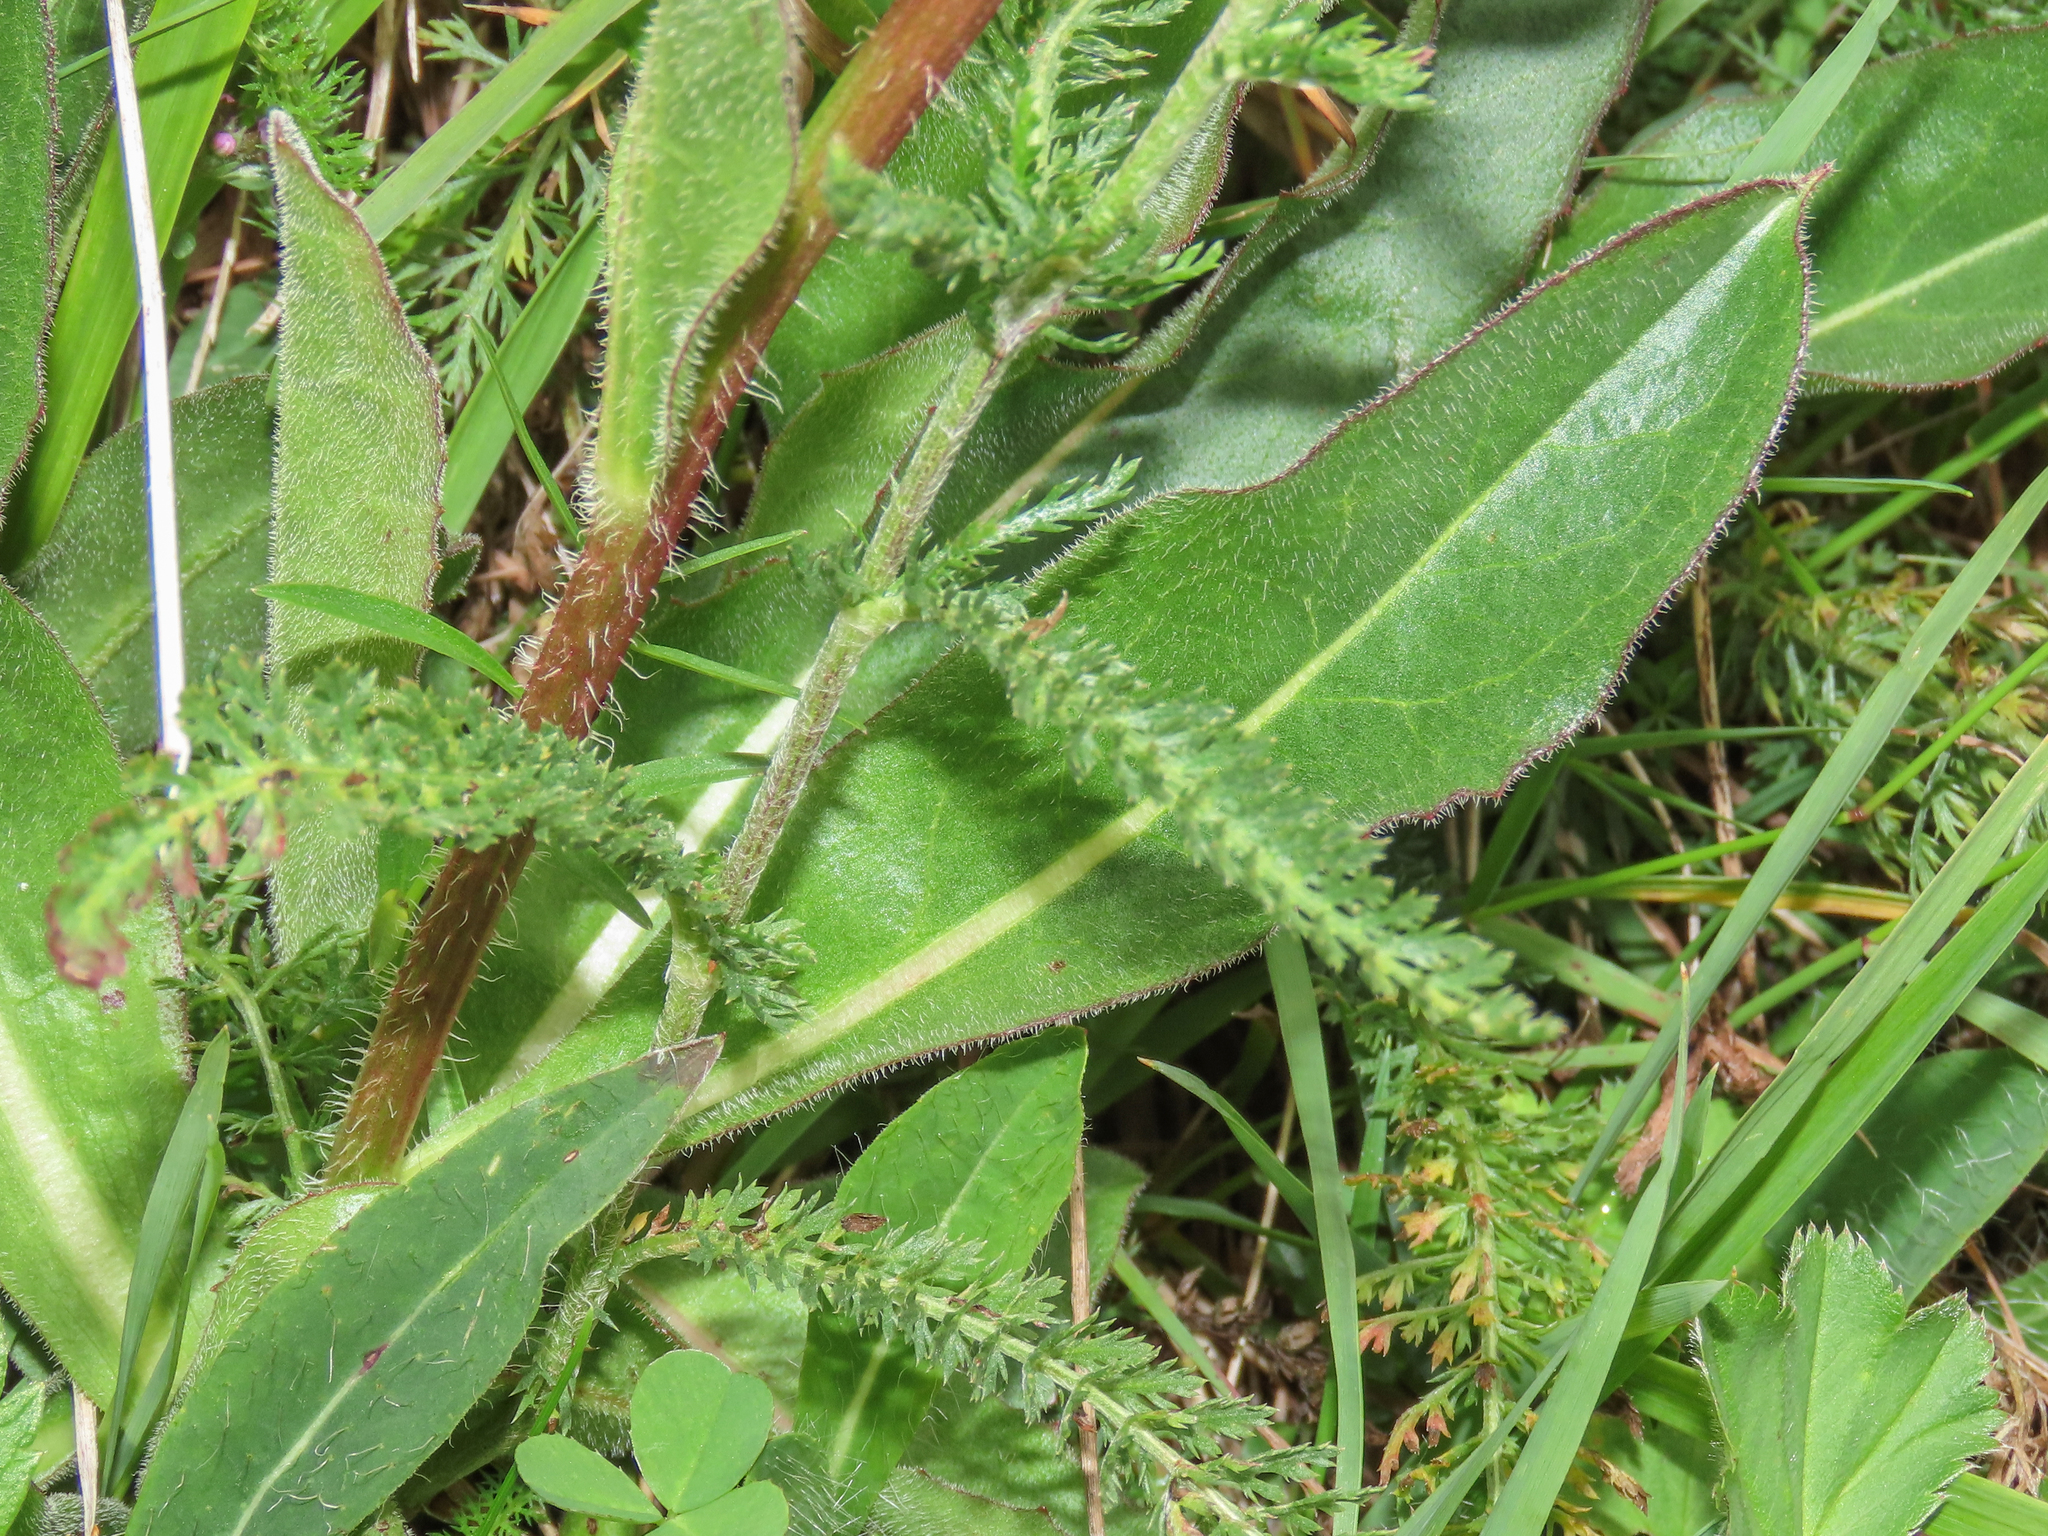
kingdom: Plantae
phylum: Tracheophyta
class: Magnoliopsida
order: Asterales
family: Asteraceae
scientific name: Asteraceae
